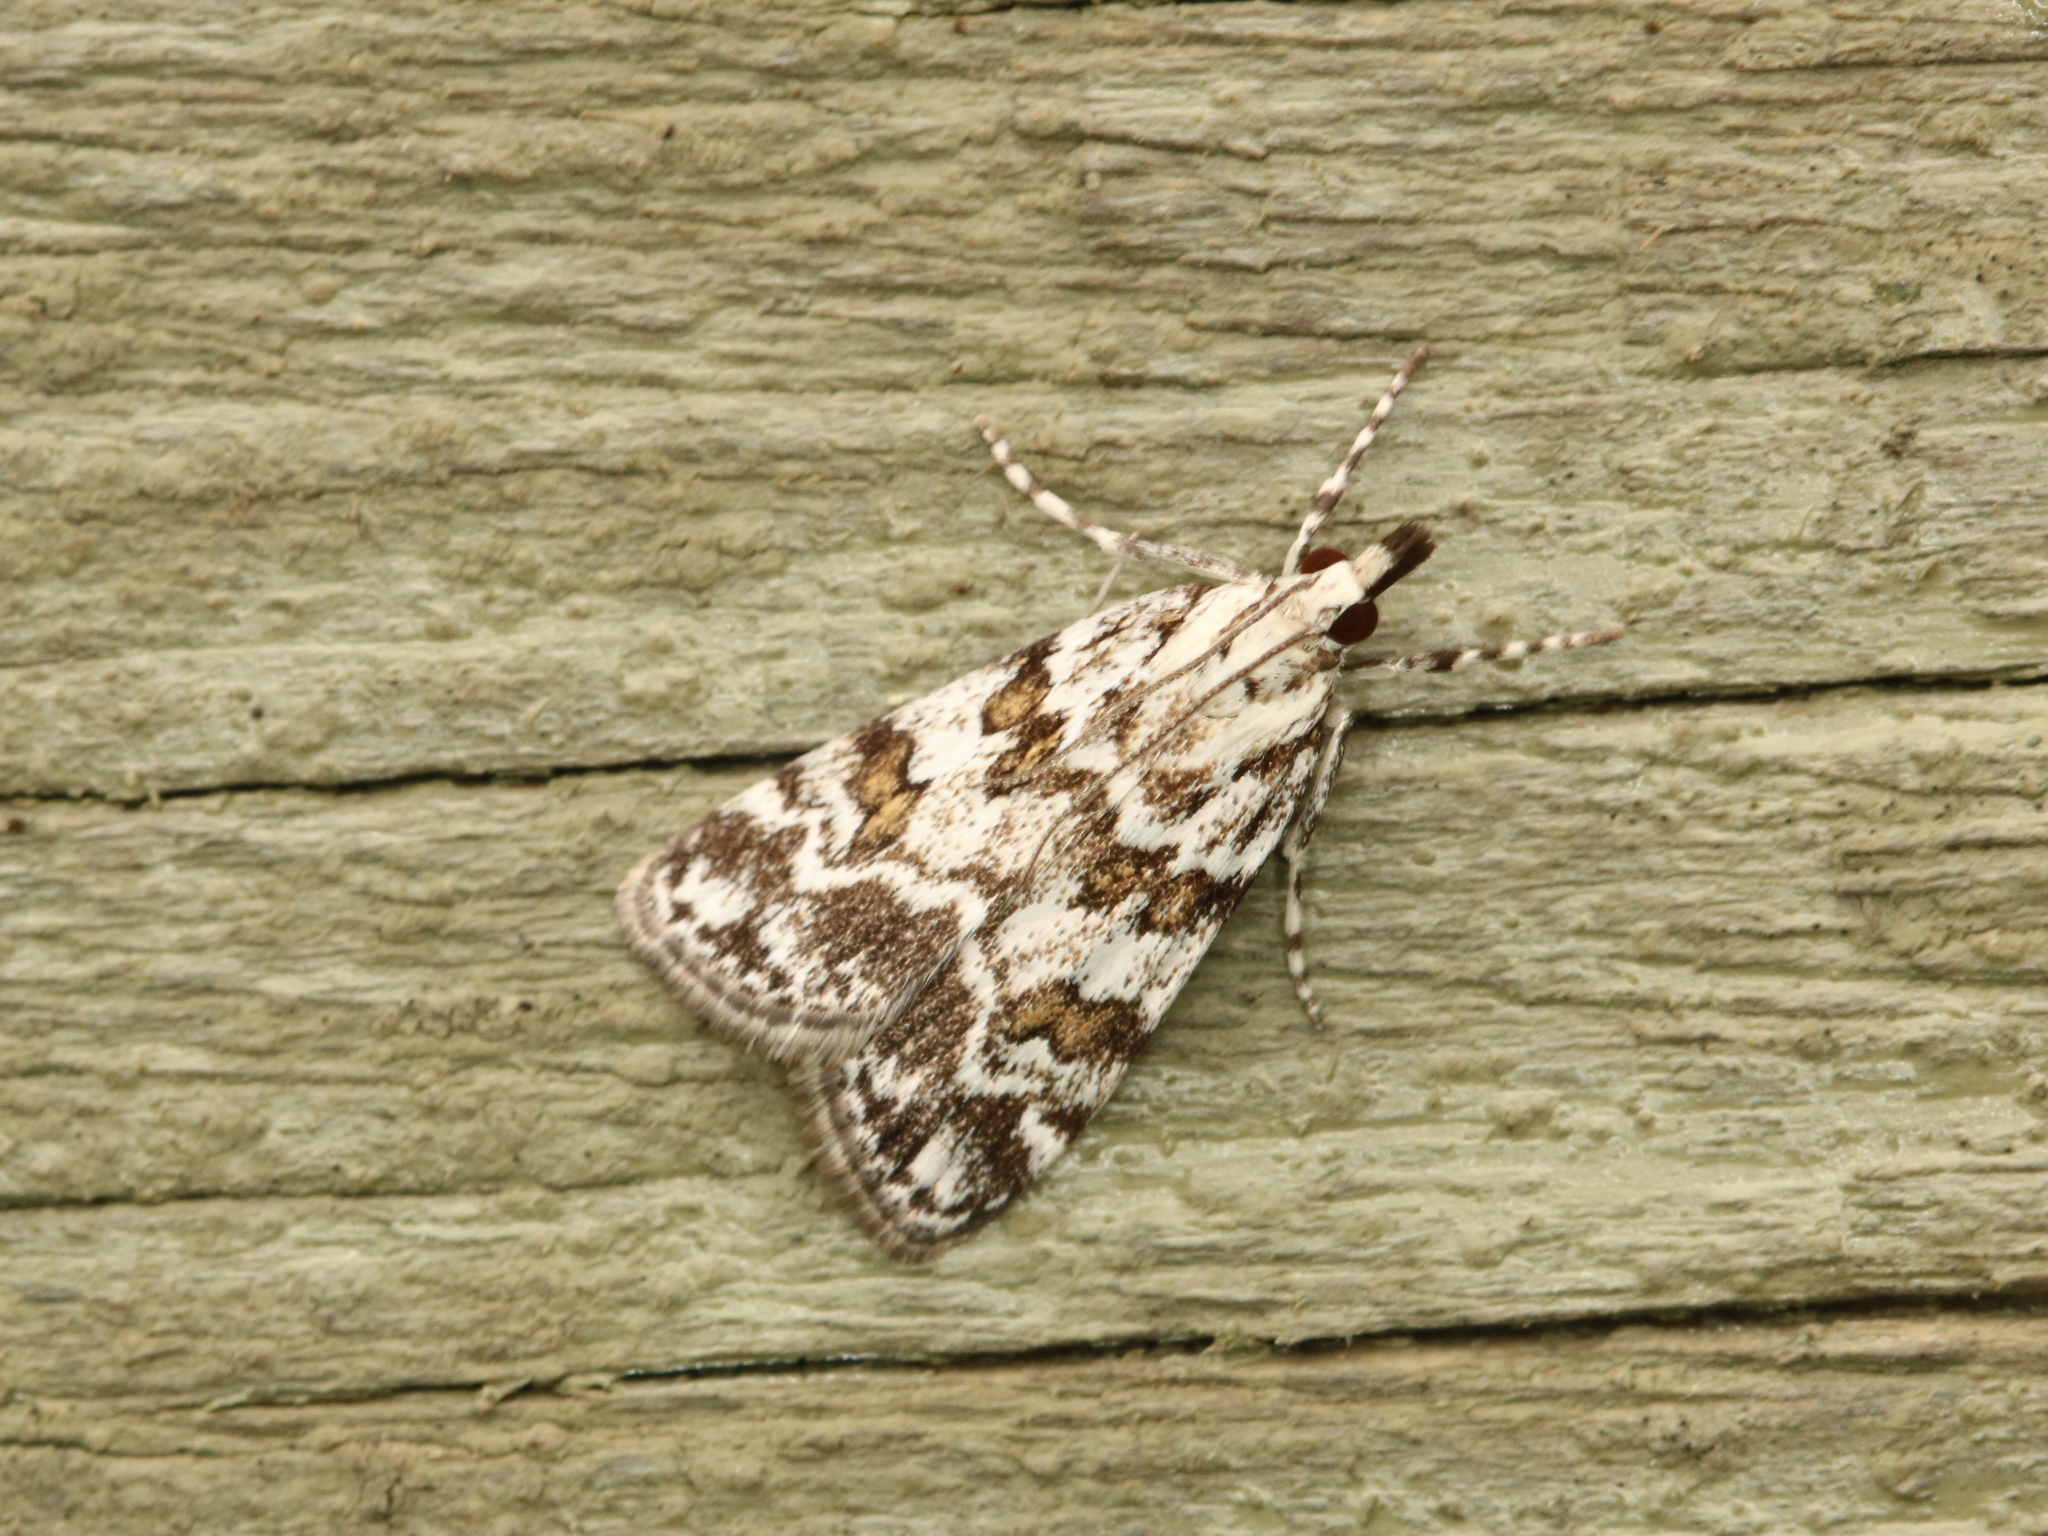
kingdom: Animalia
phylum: Arthropoda
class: Insecta
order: Lepidoptera
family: Crambidae
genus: Scoparia
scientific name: Scoparia pyralella
